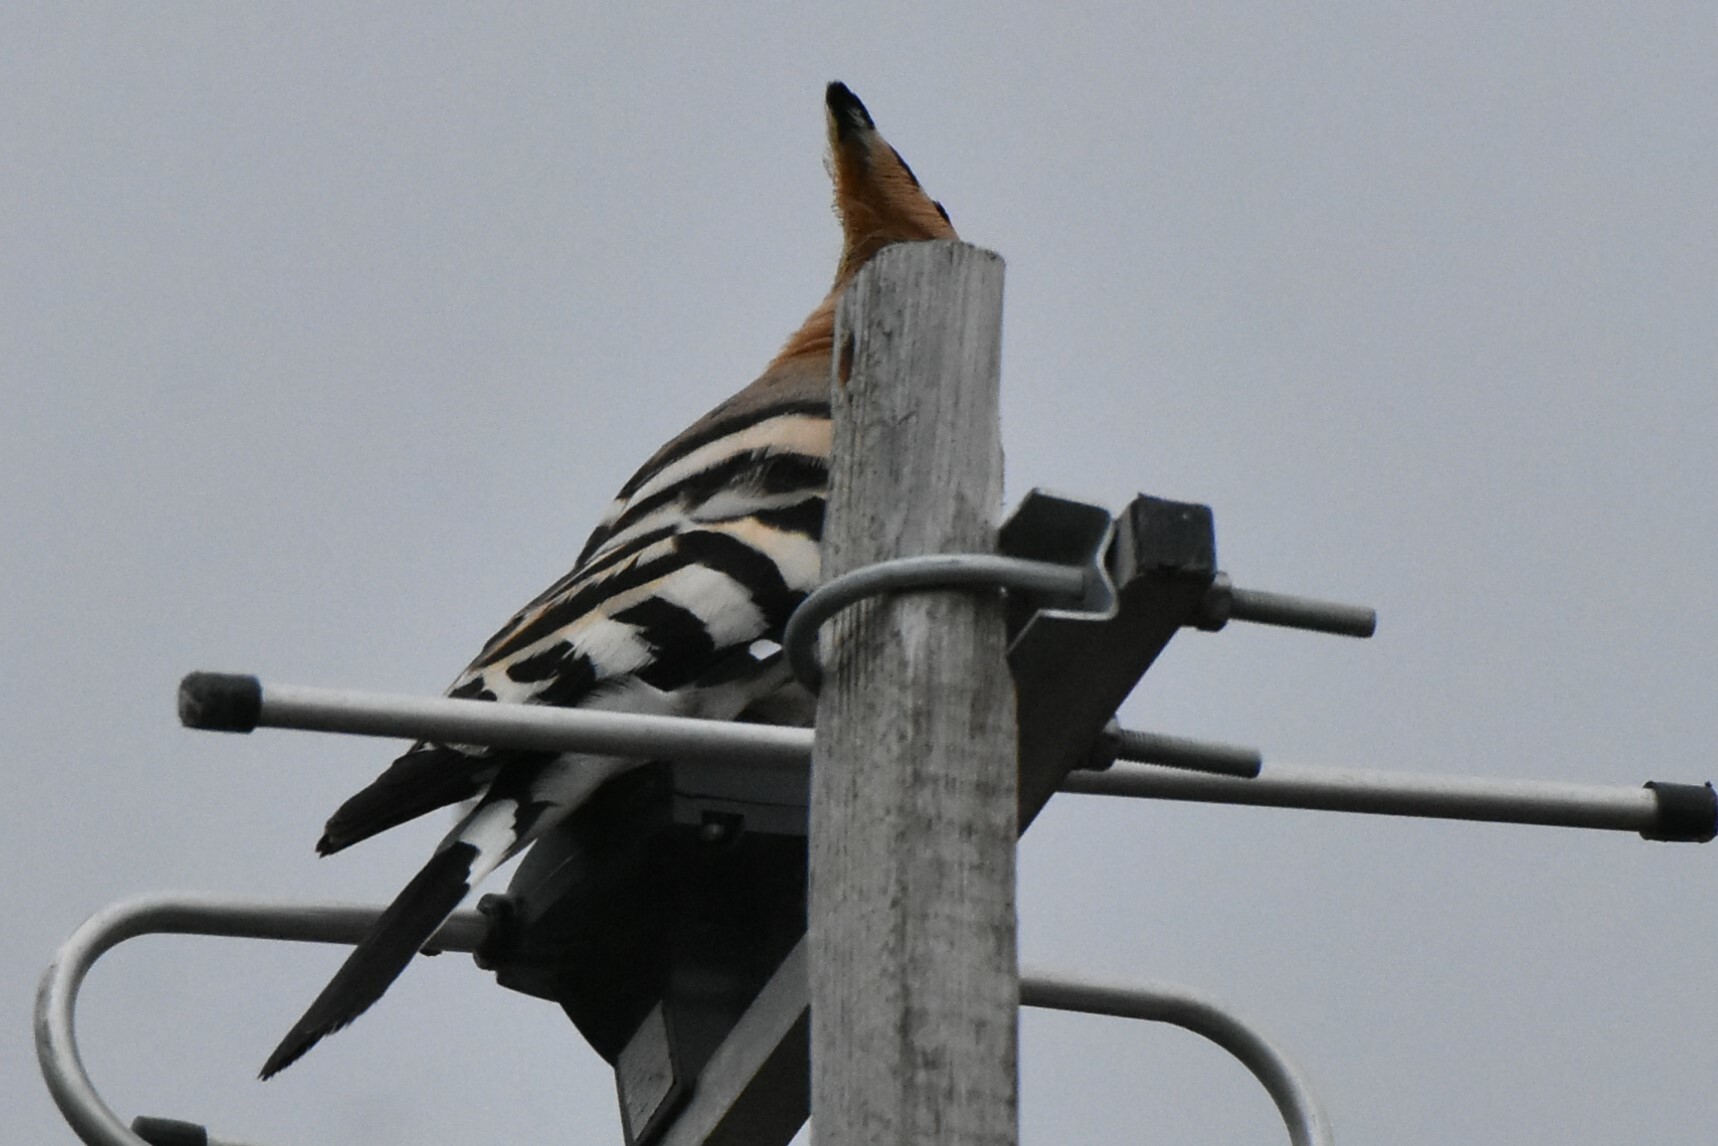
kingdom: Animalia
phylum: Chordata
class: Aves
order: Bucerotiformes
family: Upupidae
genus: Upupa
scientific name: Upupa epops
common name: Eurasian hoopoe
